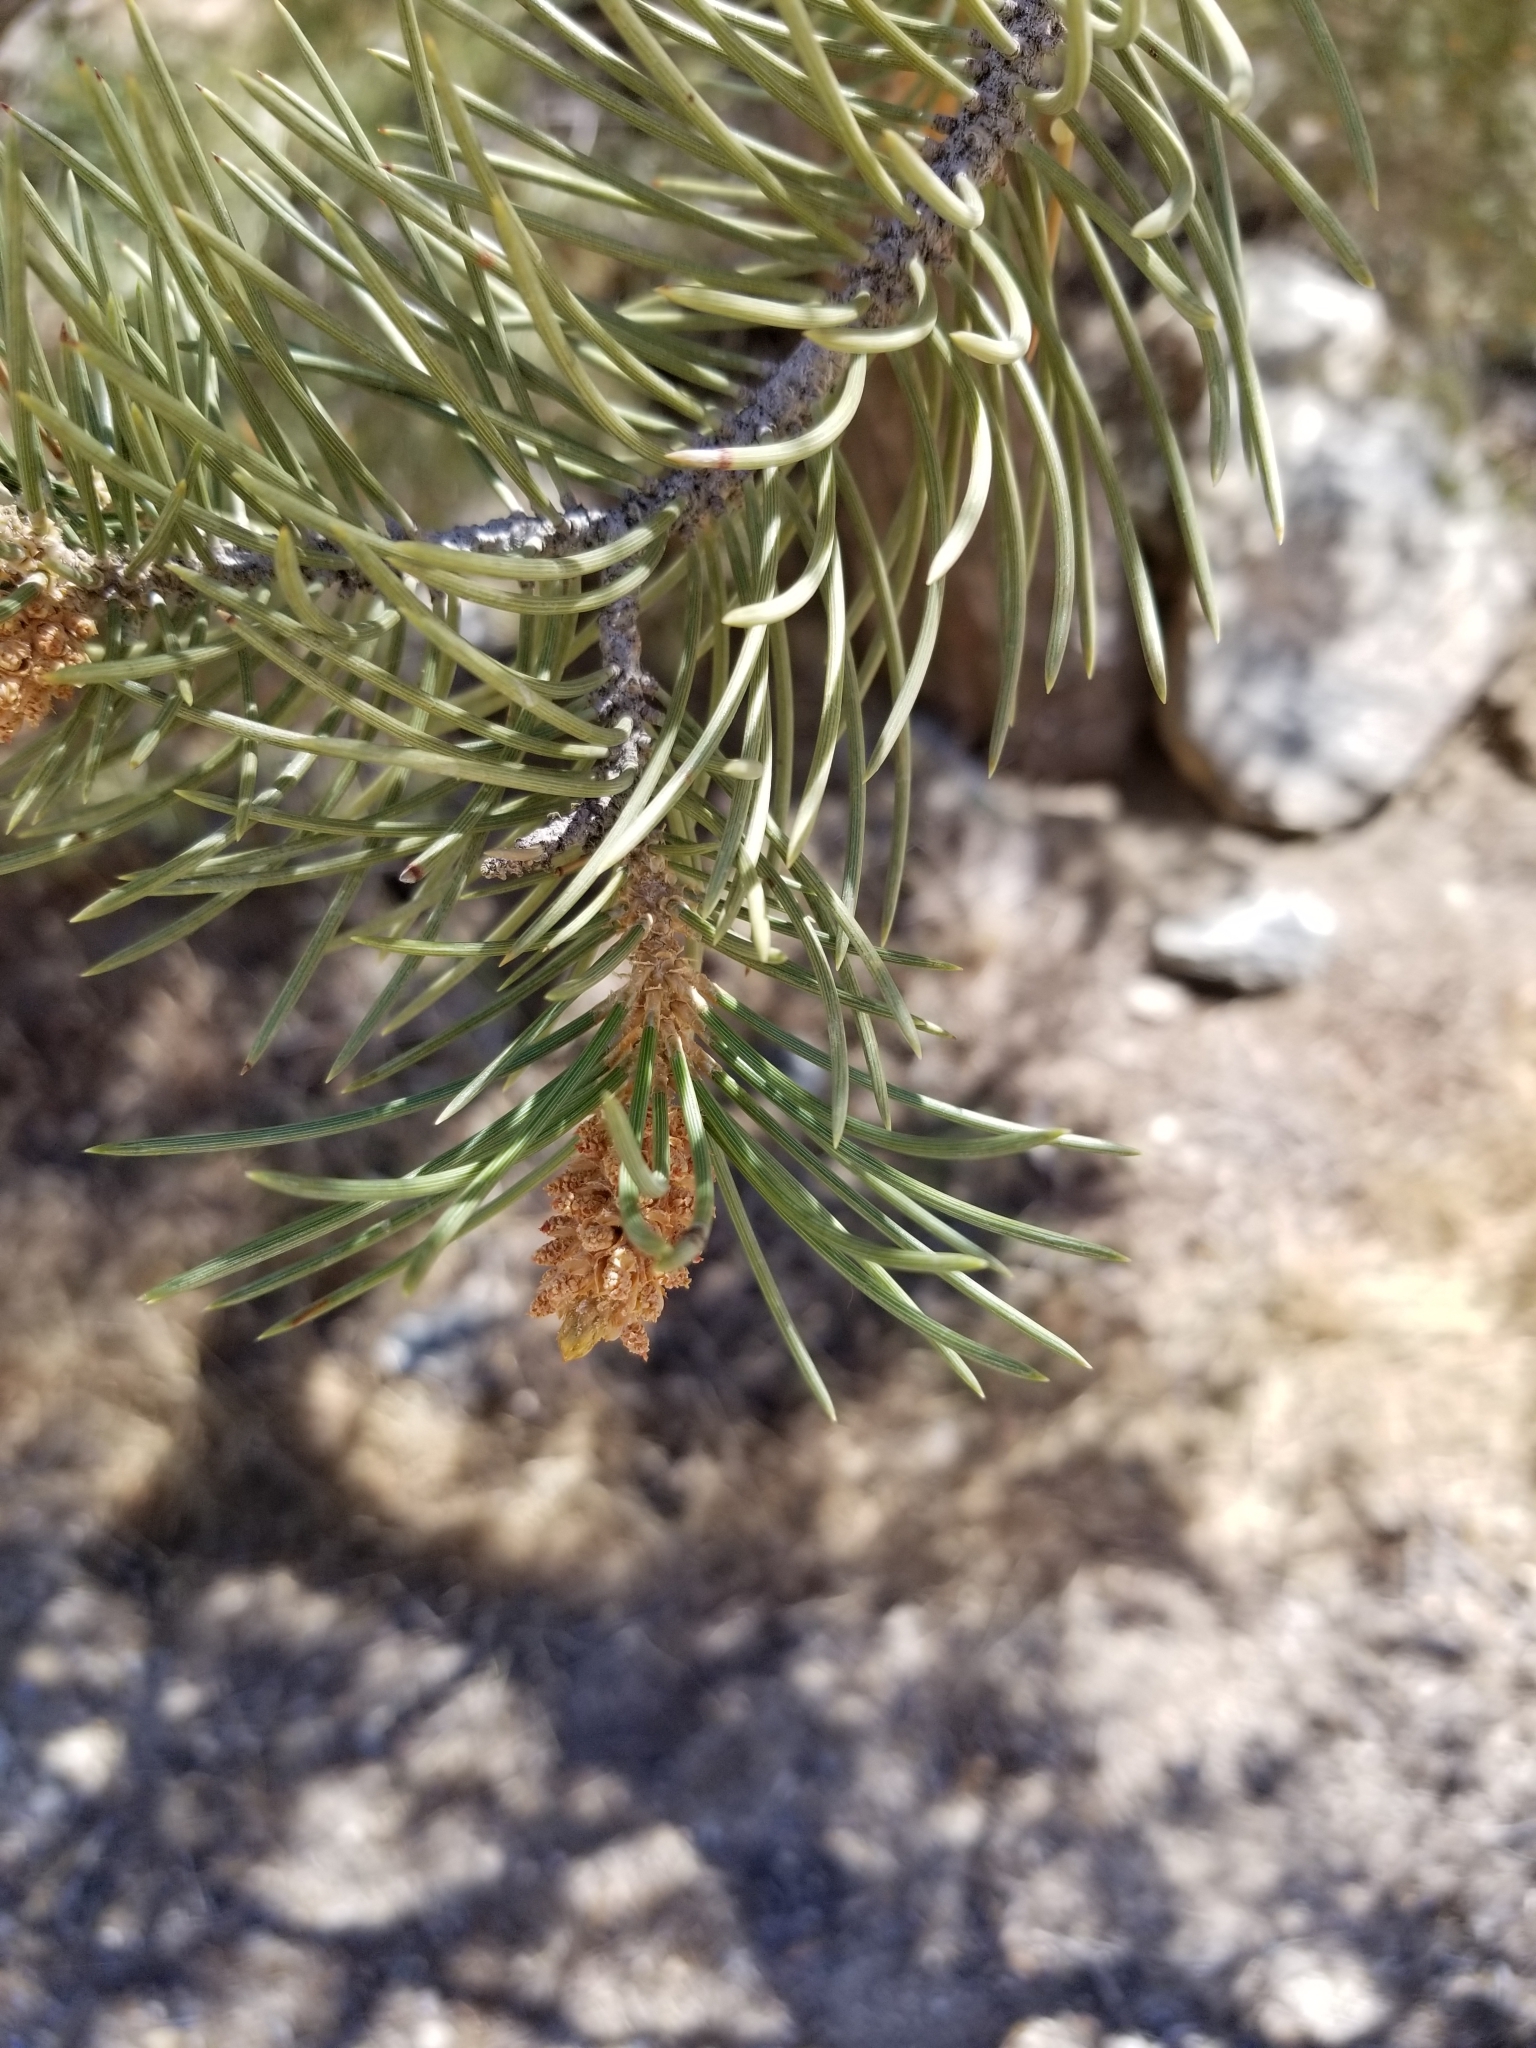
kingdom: Plantae
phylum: Tracheophyta
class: Pinopsida
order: Pinales
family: Pinaceae
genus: Pinus
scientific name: Pinus monophylla
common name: One-leaved nut pine
